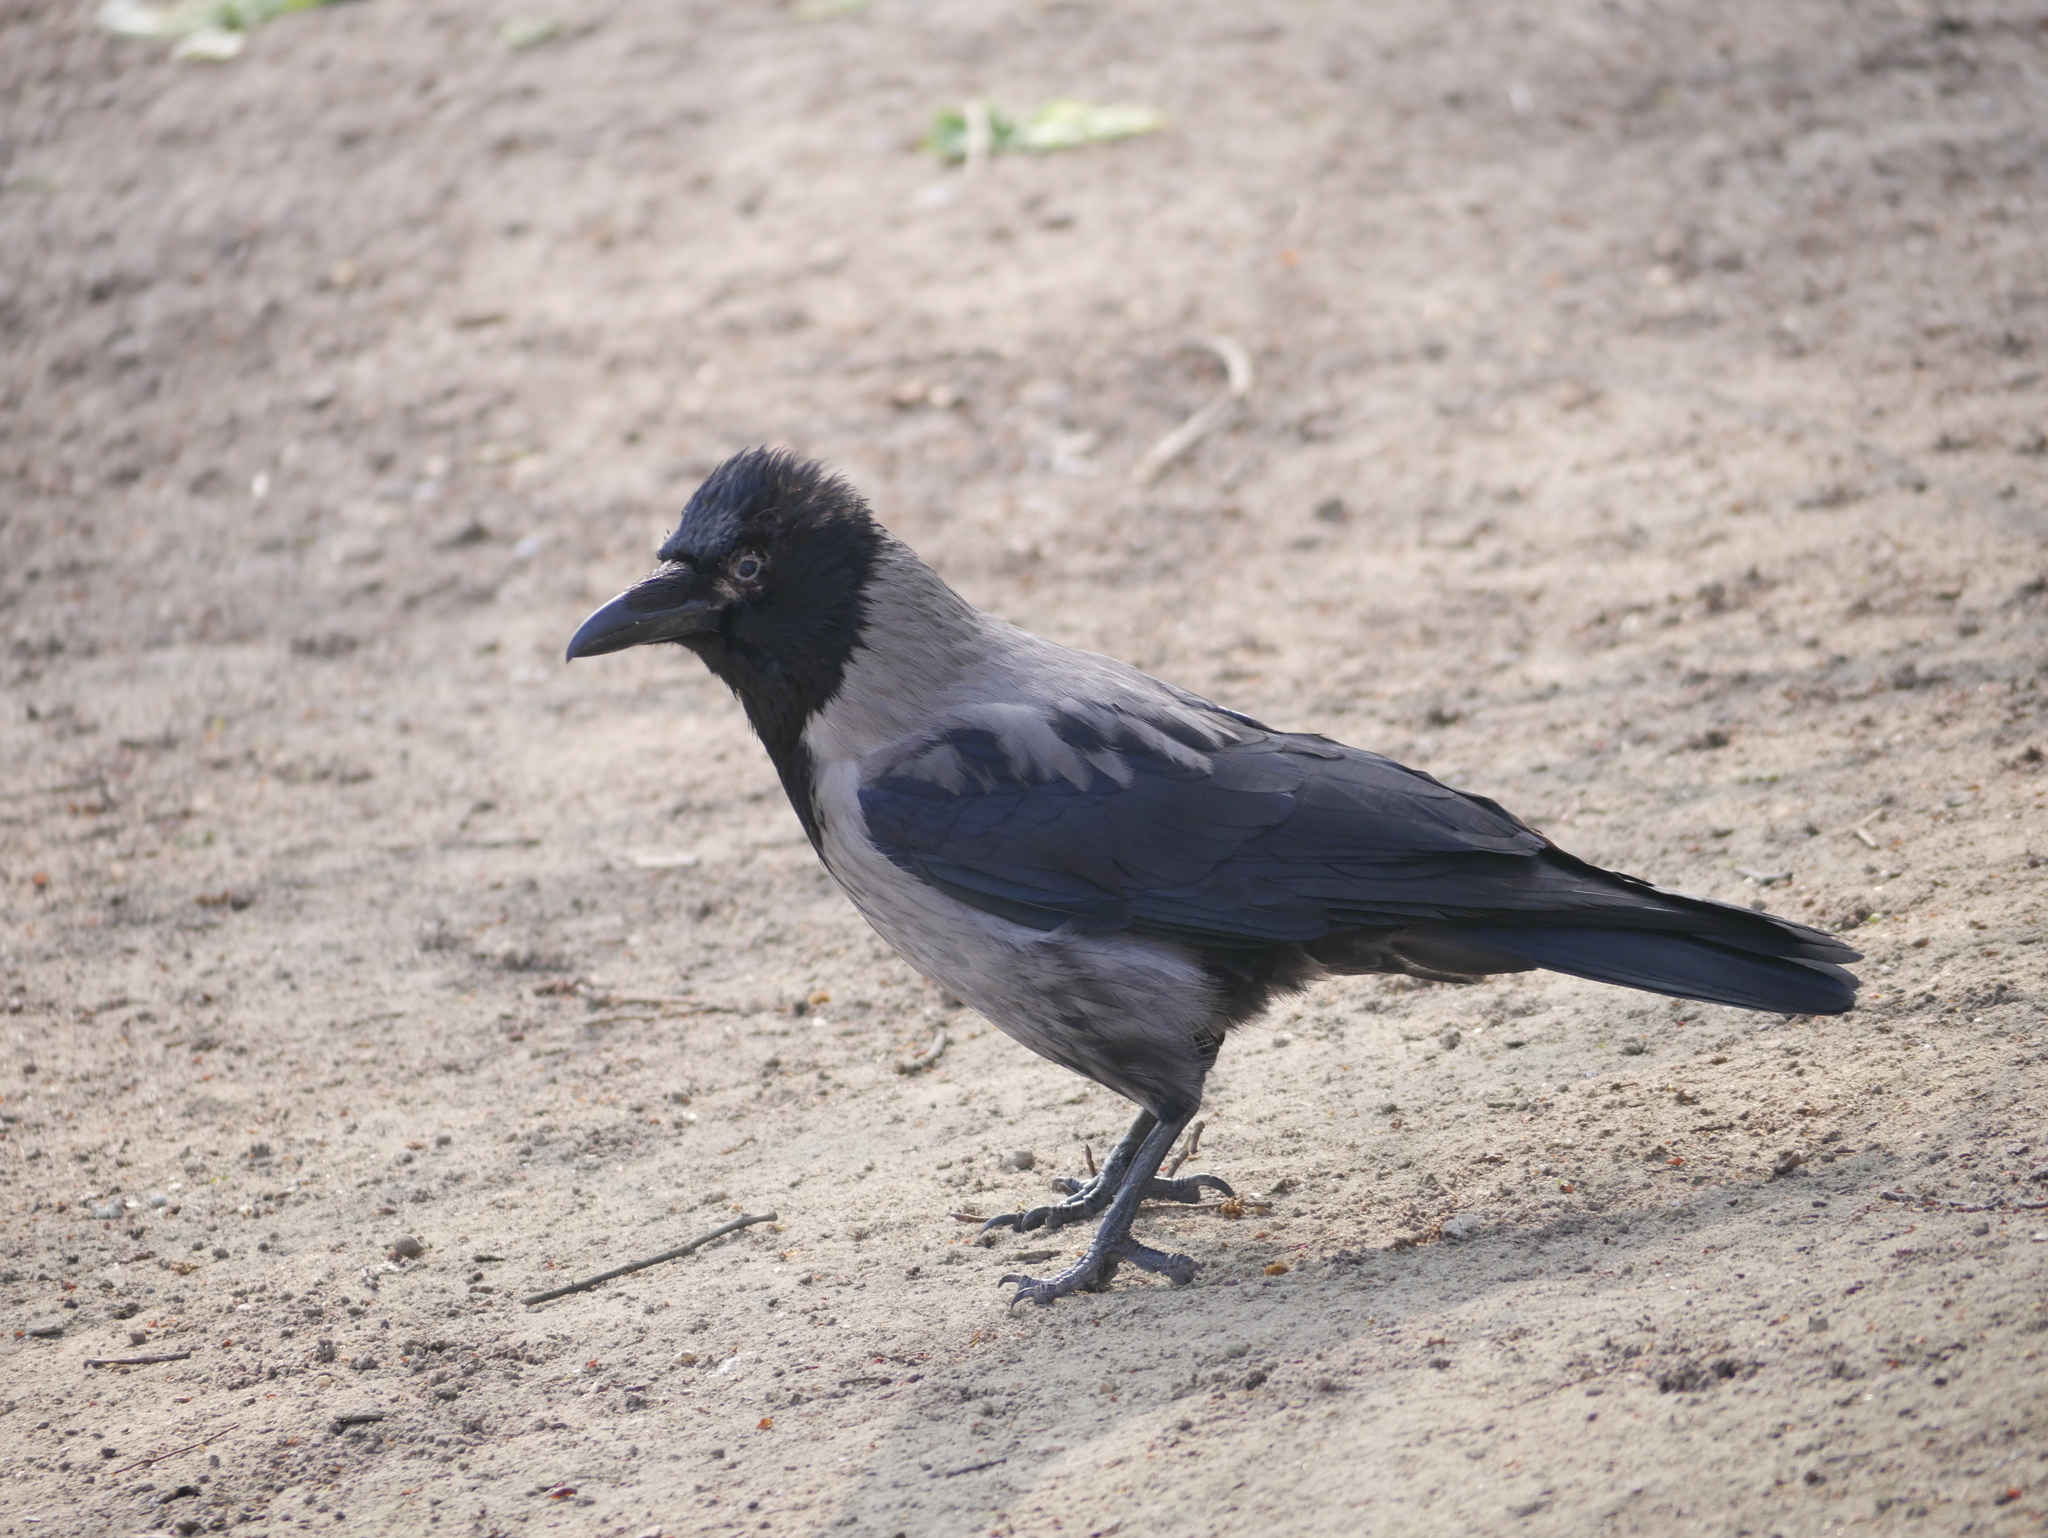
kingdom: Animalia
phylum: Chordata
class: Aves
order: Passeriformes
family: Corvidae
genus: Corvus
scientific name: Corvus
